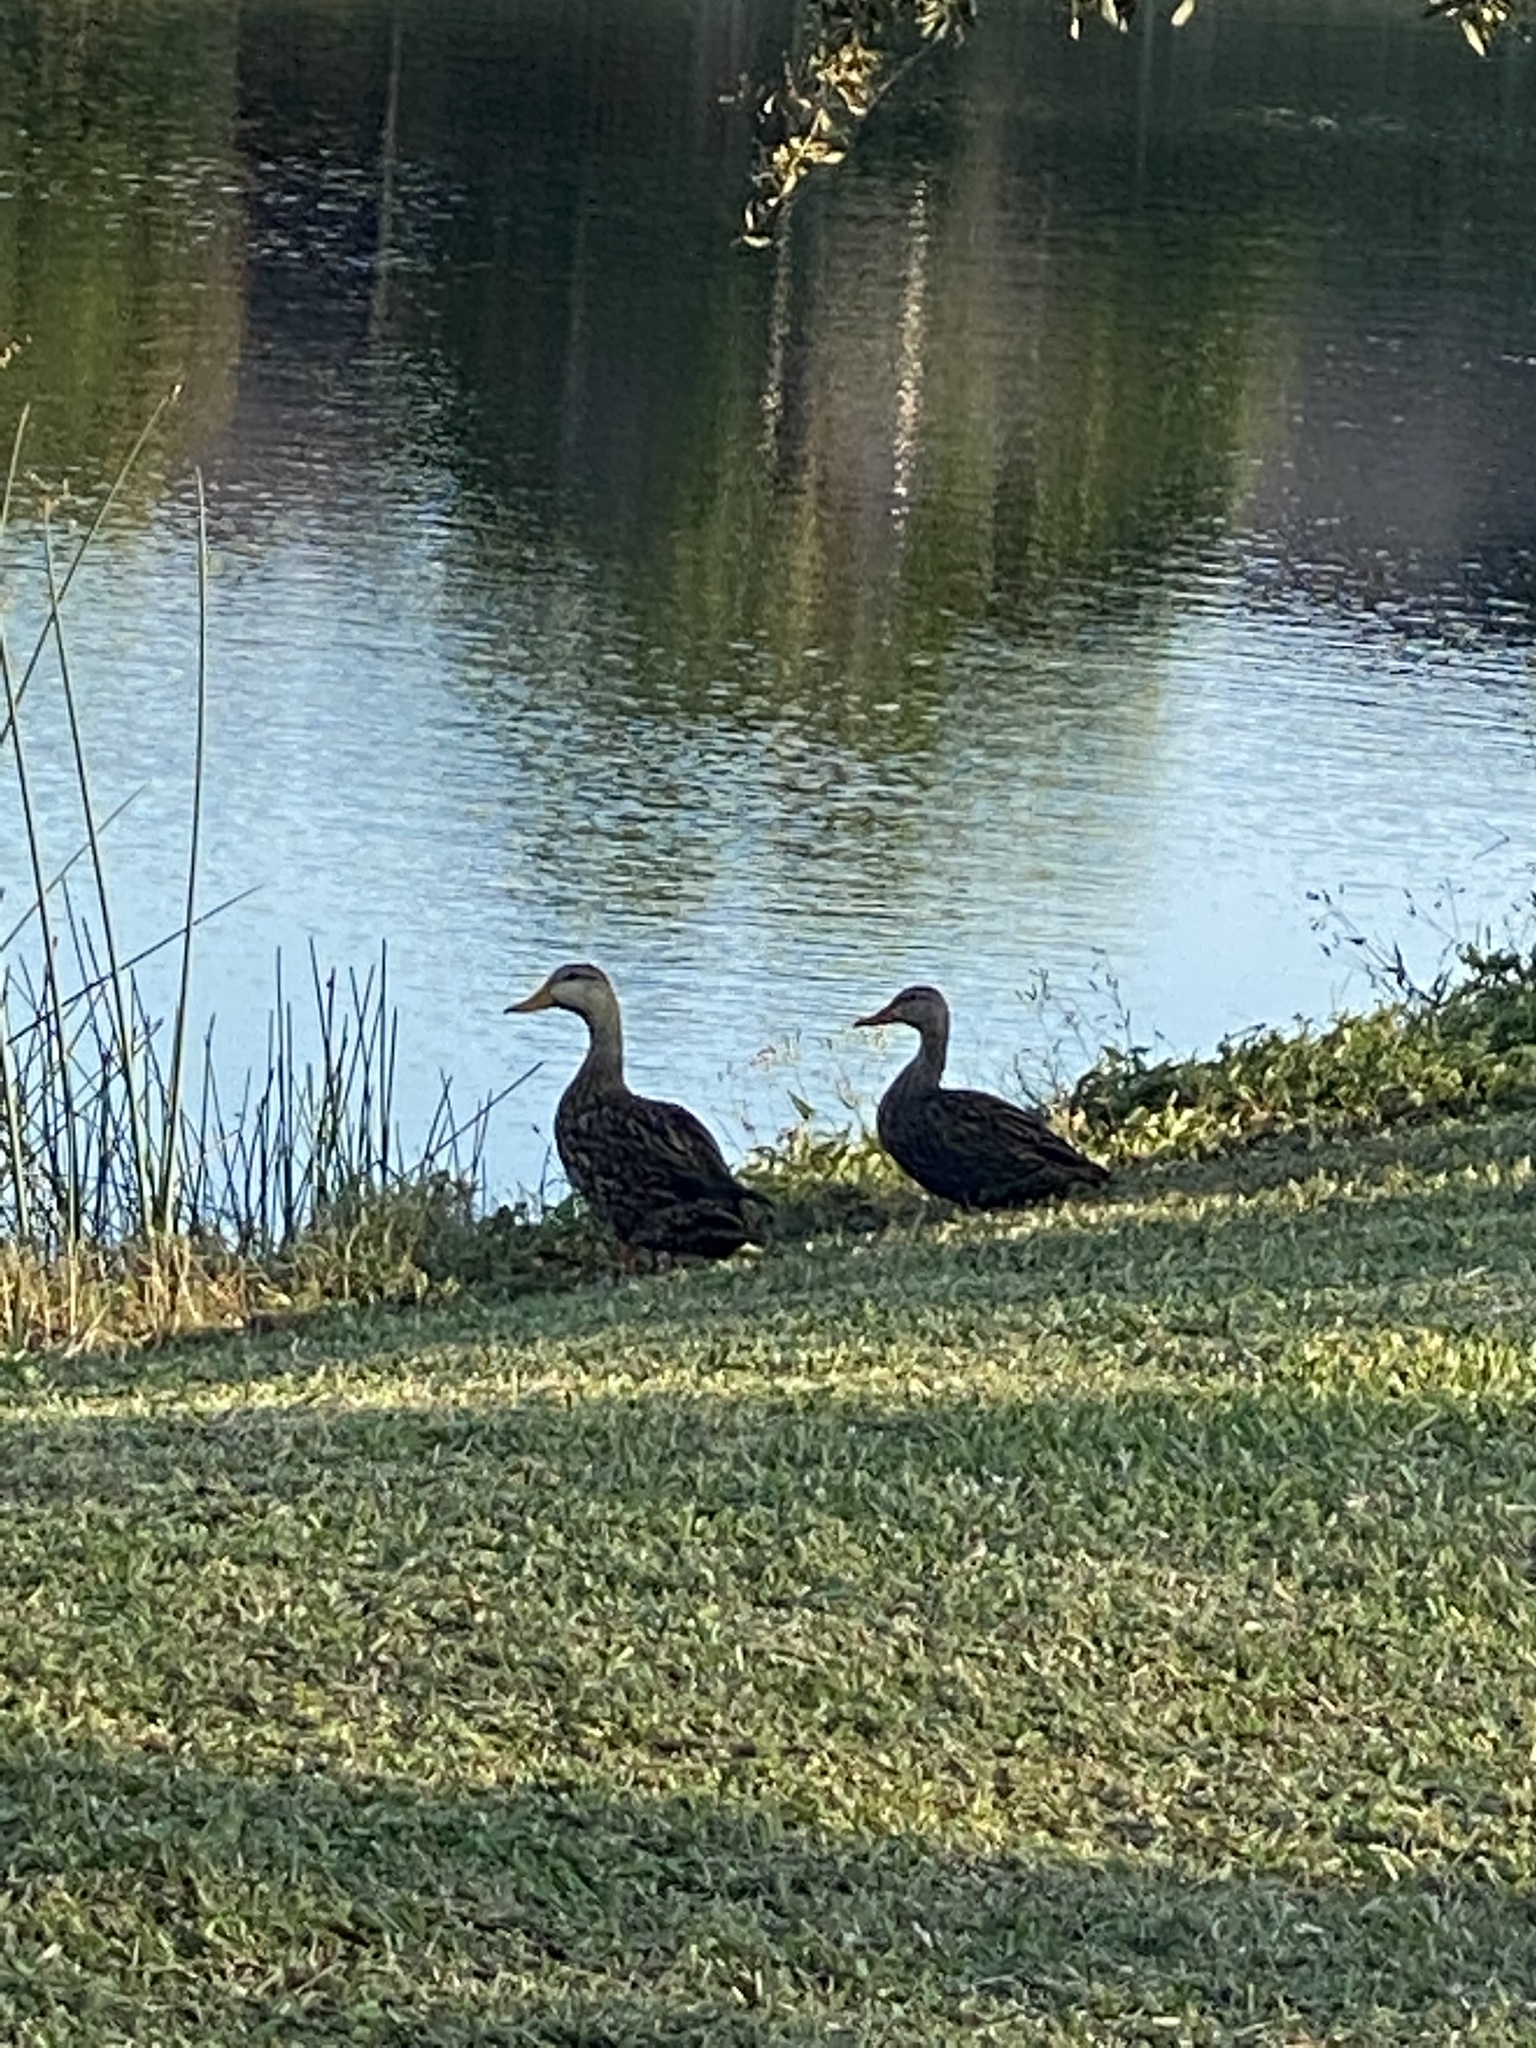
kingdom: Animalia
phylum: Chordata
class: Aves
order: Anseriformes
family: Anatidae
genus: Anas
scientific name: Anas fulvigula
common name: Mottled duck
